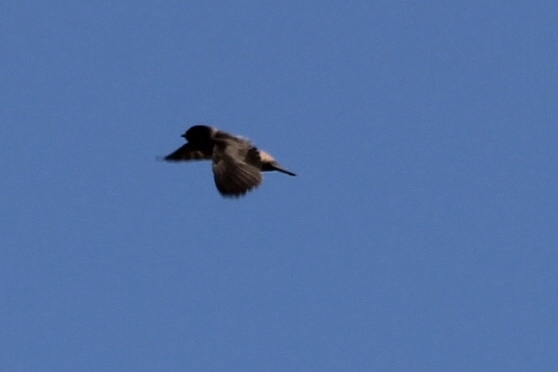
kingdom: Animalia
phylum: Chordata
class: Aves
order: Passeriformes
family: Hirundinidae
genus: Petrochelidon
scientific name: Petrochelidon pyrrhonota
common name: American cliff swallow
